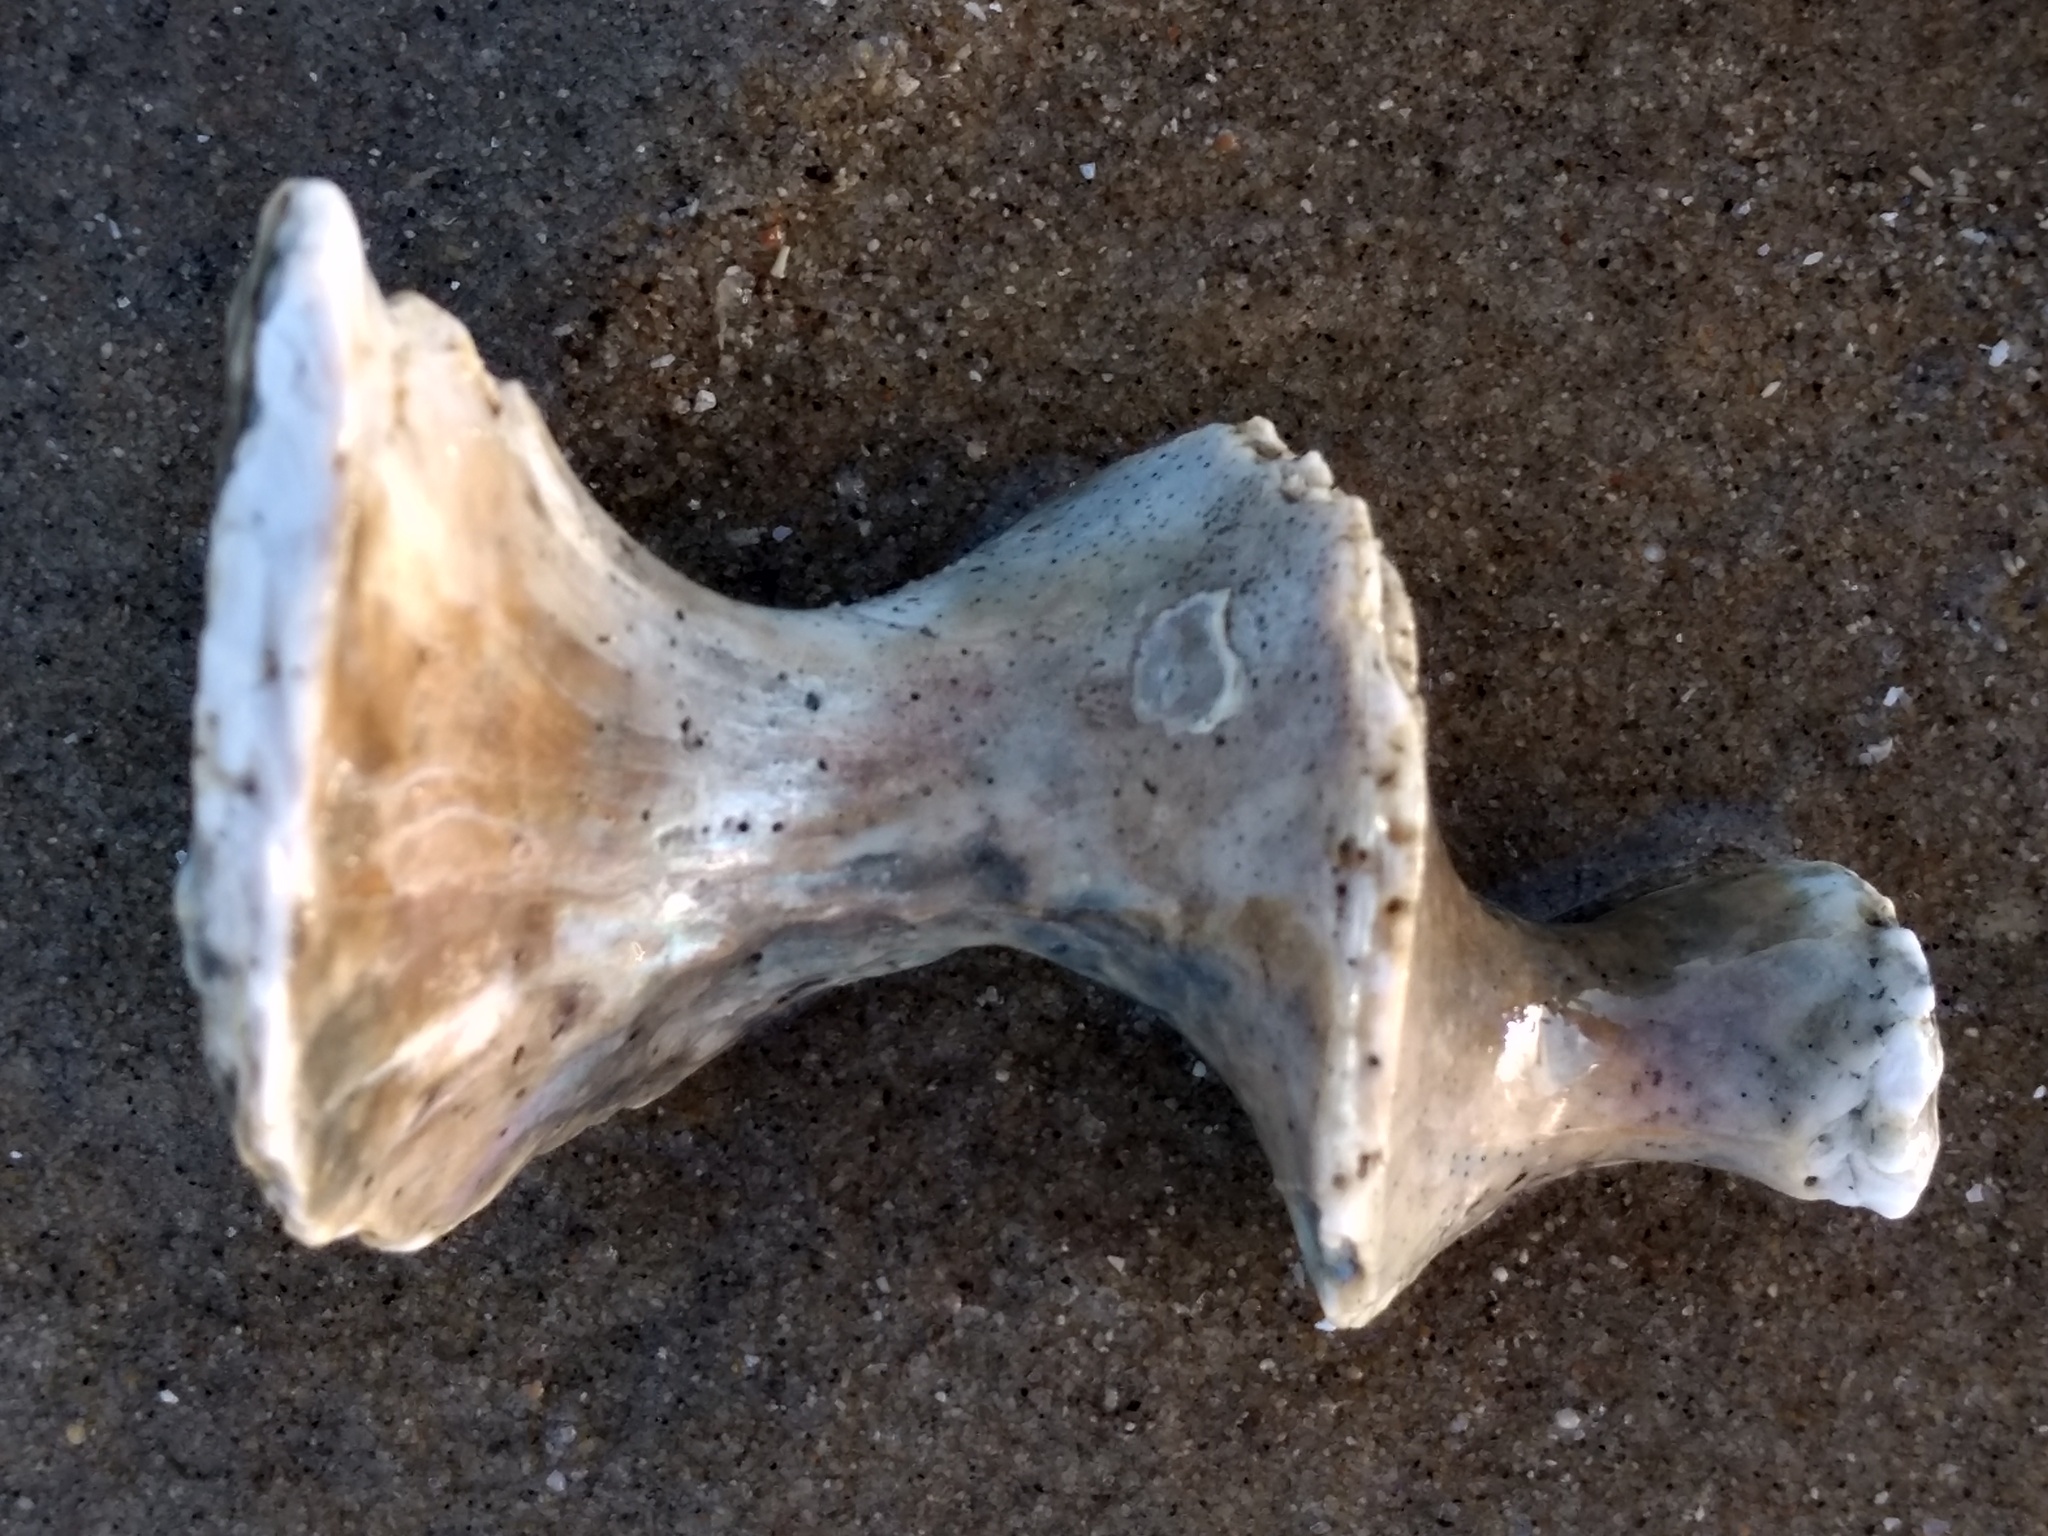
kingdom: Animalia
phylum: Mollusca
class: Gastropoda
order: Trochida
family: Turbinidae
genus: Megastraea
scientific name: Megastraea undosa
